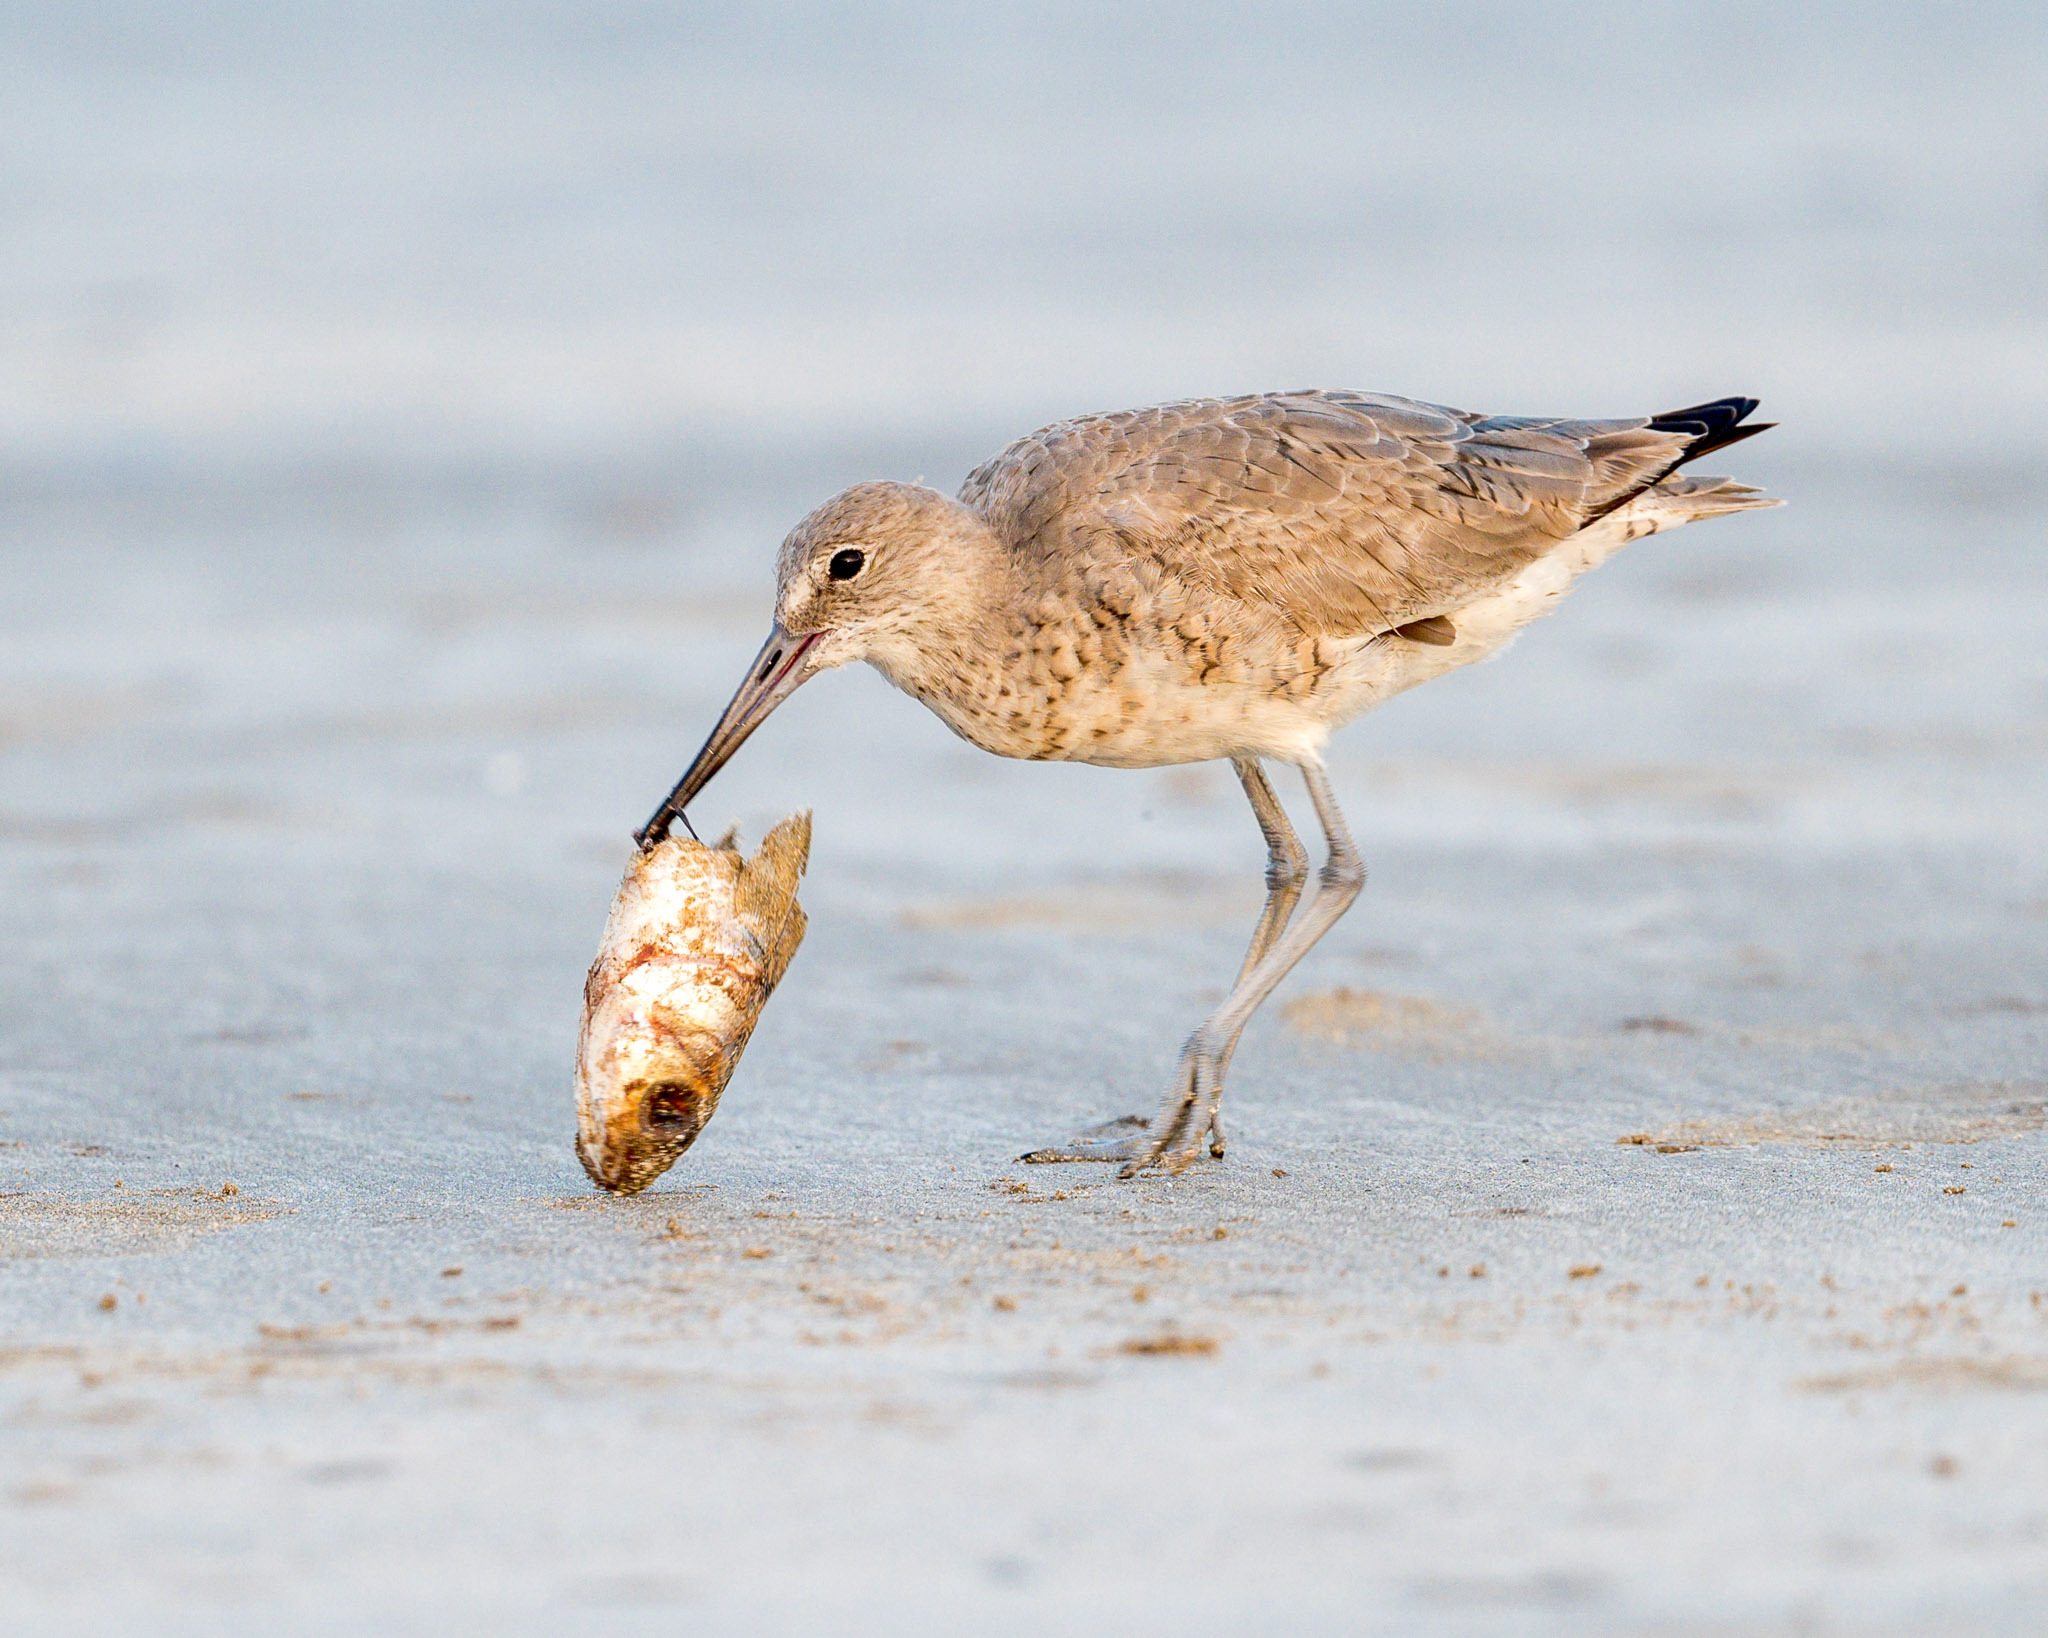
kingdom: Animalia
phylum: Chordata
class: Aves
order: Charadriiformes
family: Scolopacidae
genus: Tringa
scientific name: Tringa semipalmata
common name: Willet
